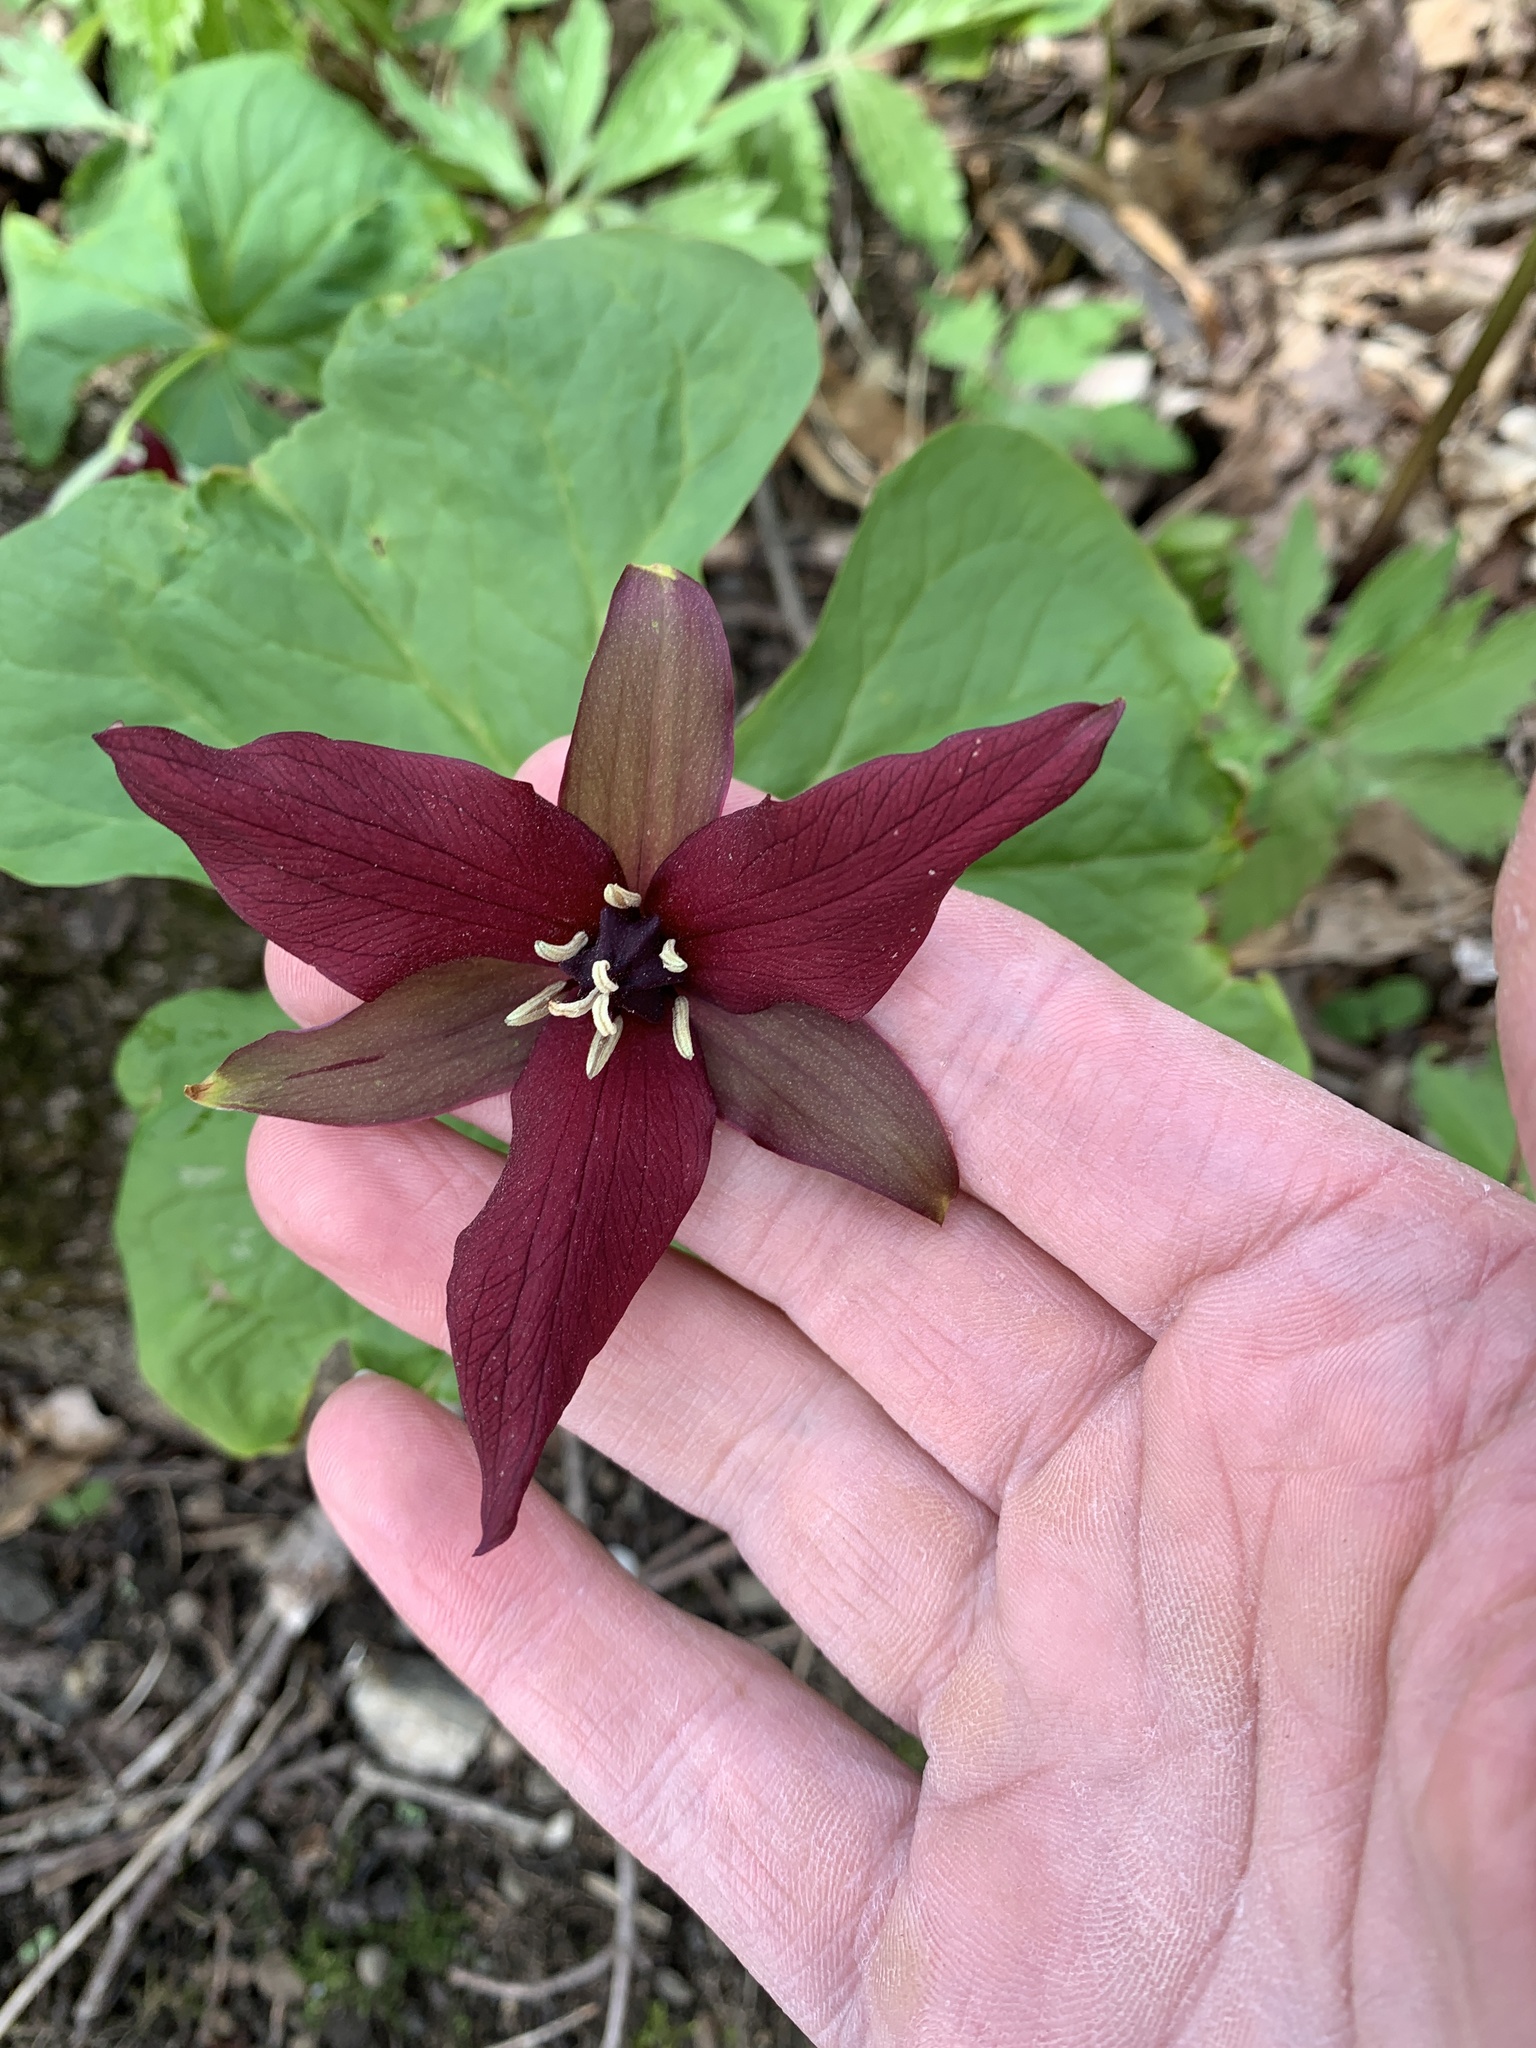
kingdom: Plantae
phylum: Tracheophyta
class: Liliopsida
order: Liliales
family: Melanthiaceae
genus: Trillium
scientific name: Trillium erectum
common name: Purple trillium
